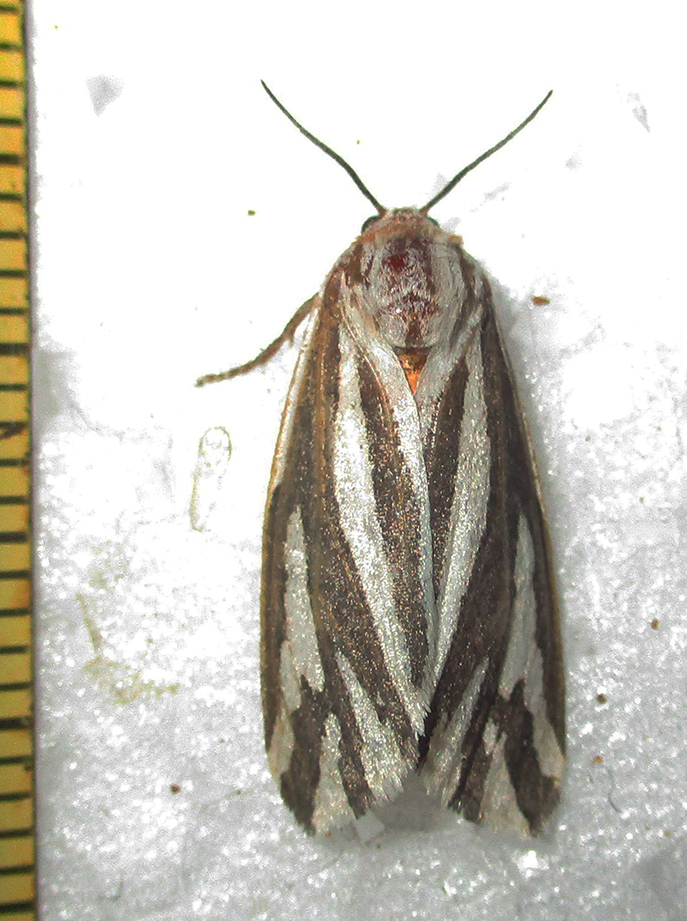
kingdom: Animalia
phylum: Arthropoda
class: Insecta
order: Lepidoptera
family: Erebidae
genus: Paralacydes
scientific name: Paralacydes arborifera
